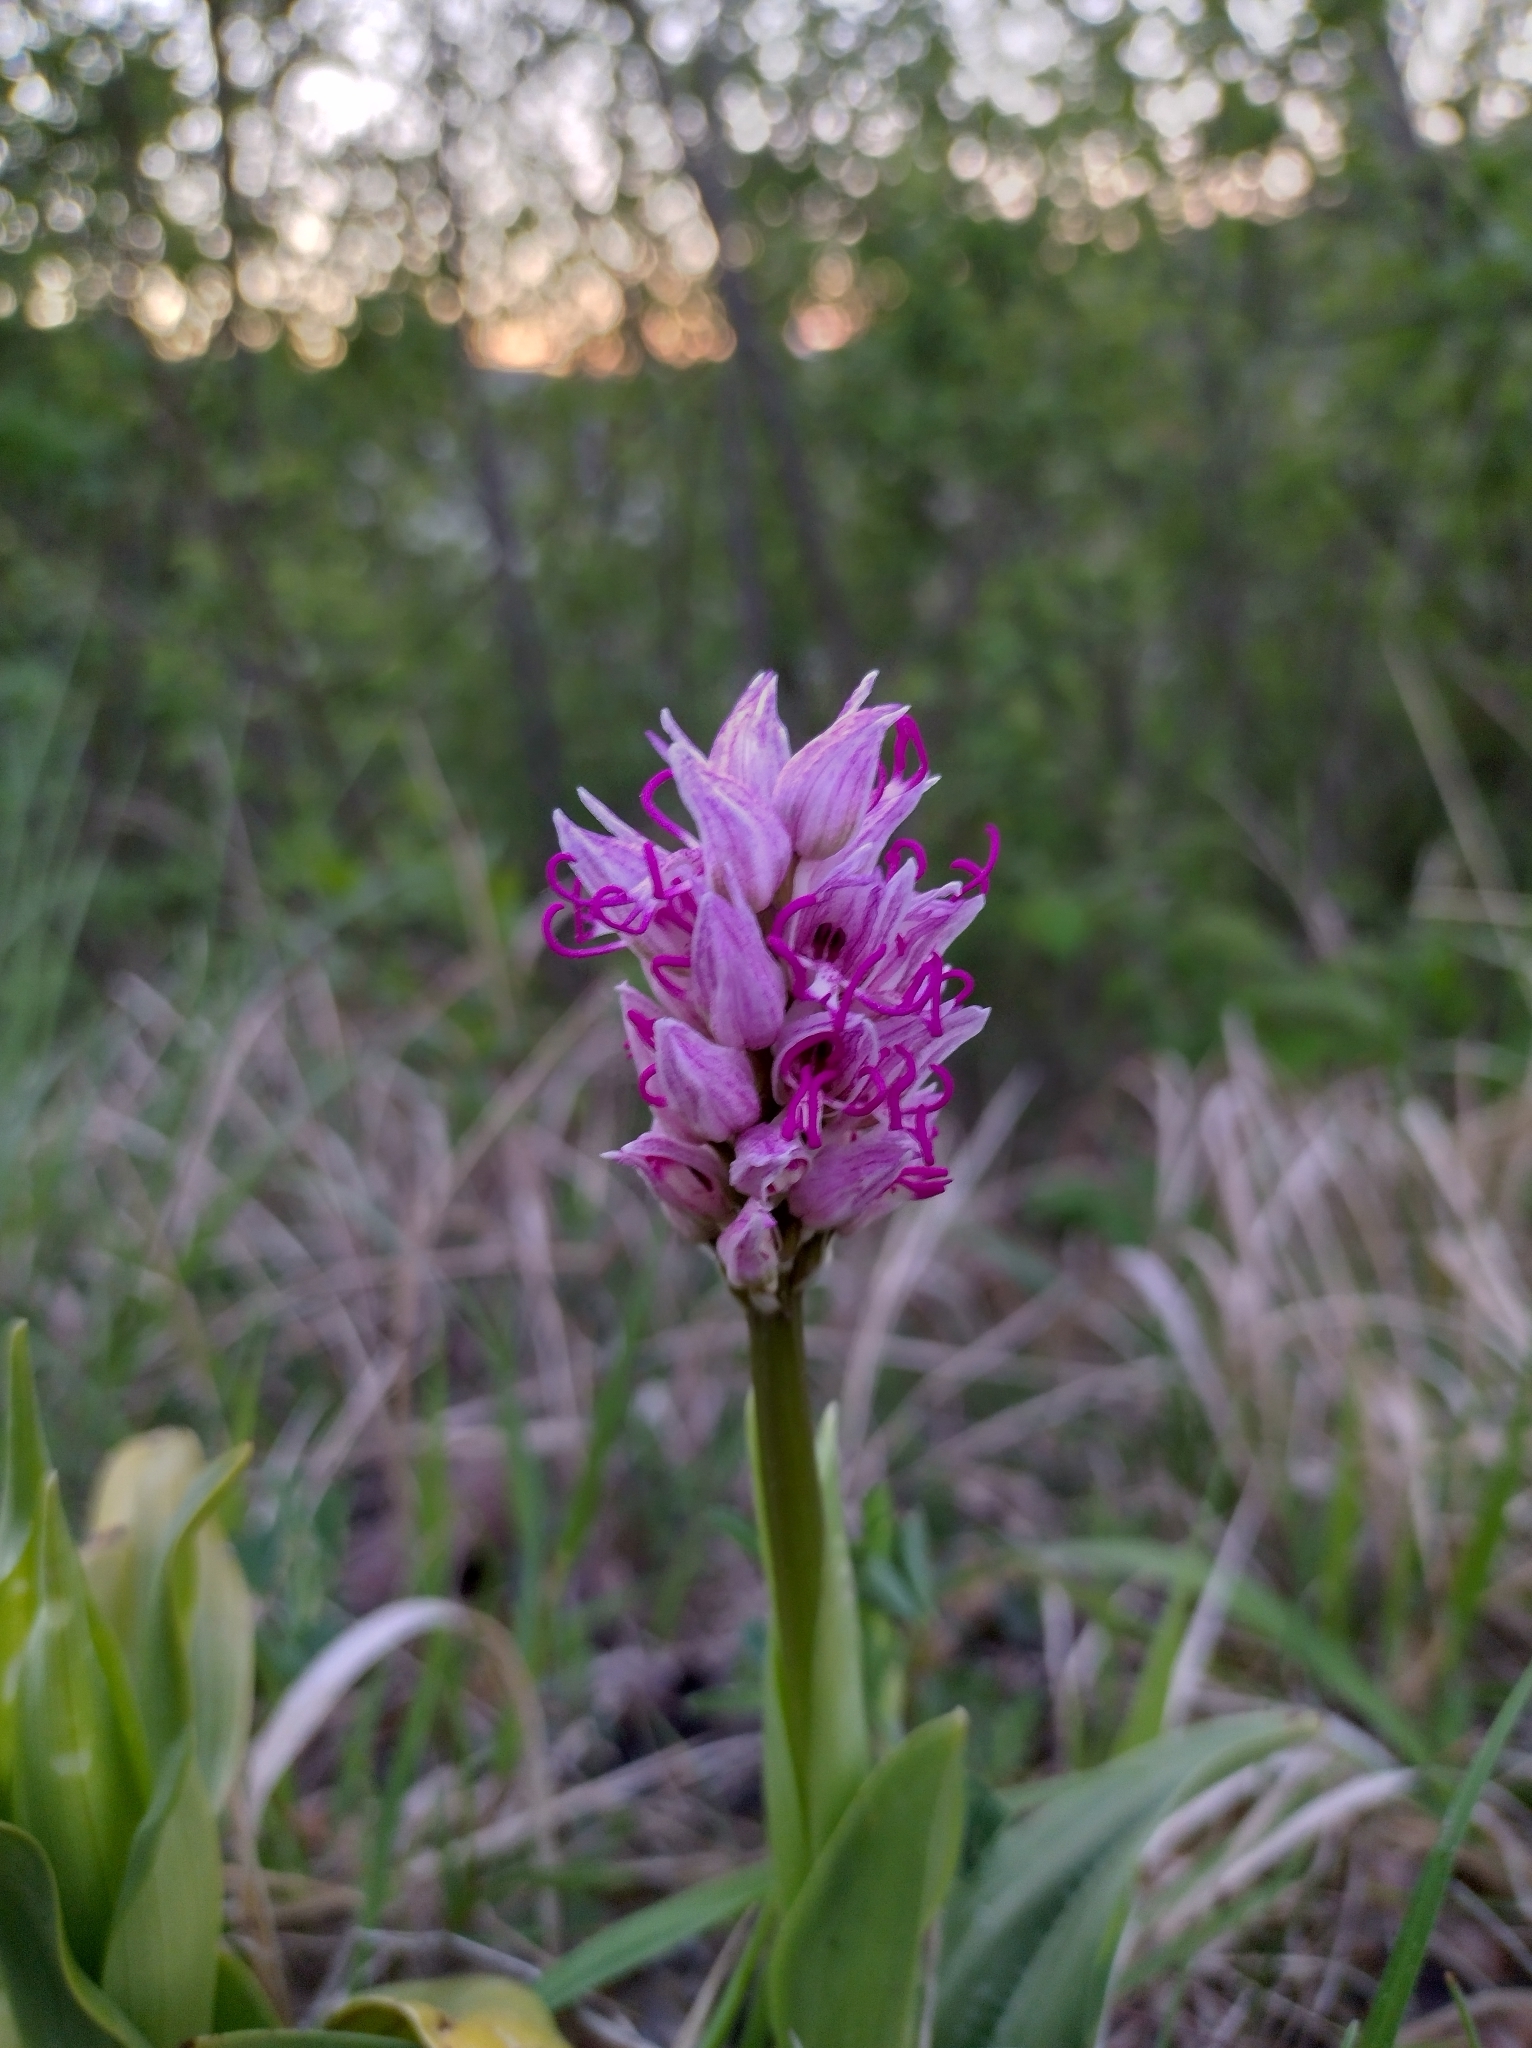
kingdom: Plantae
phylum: Tracheophyta
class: Liliopsida
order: Asparagales
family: Orchidaceae
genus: Orchis
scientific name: Orchis simia
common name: Monkey orchid
